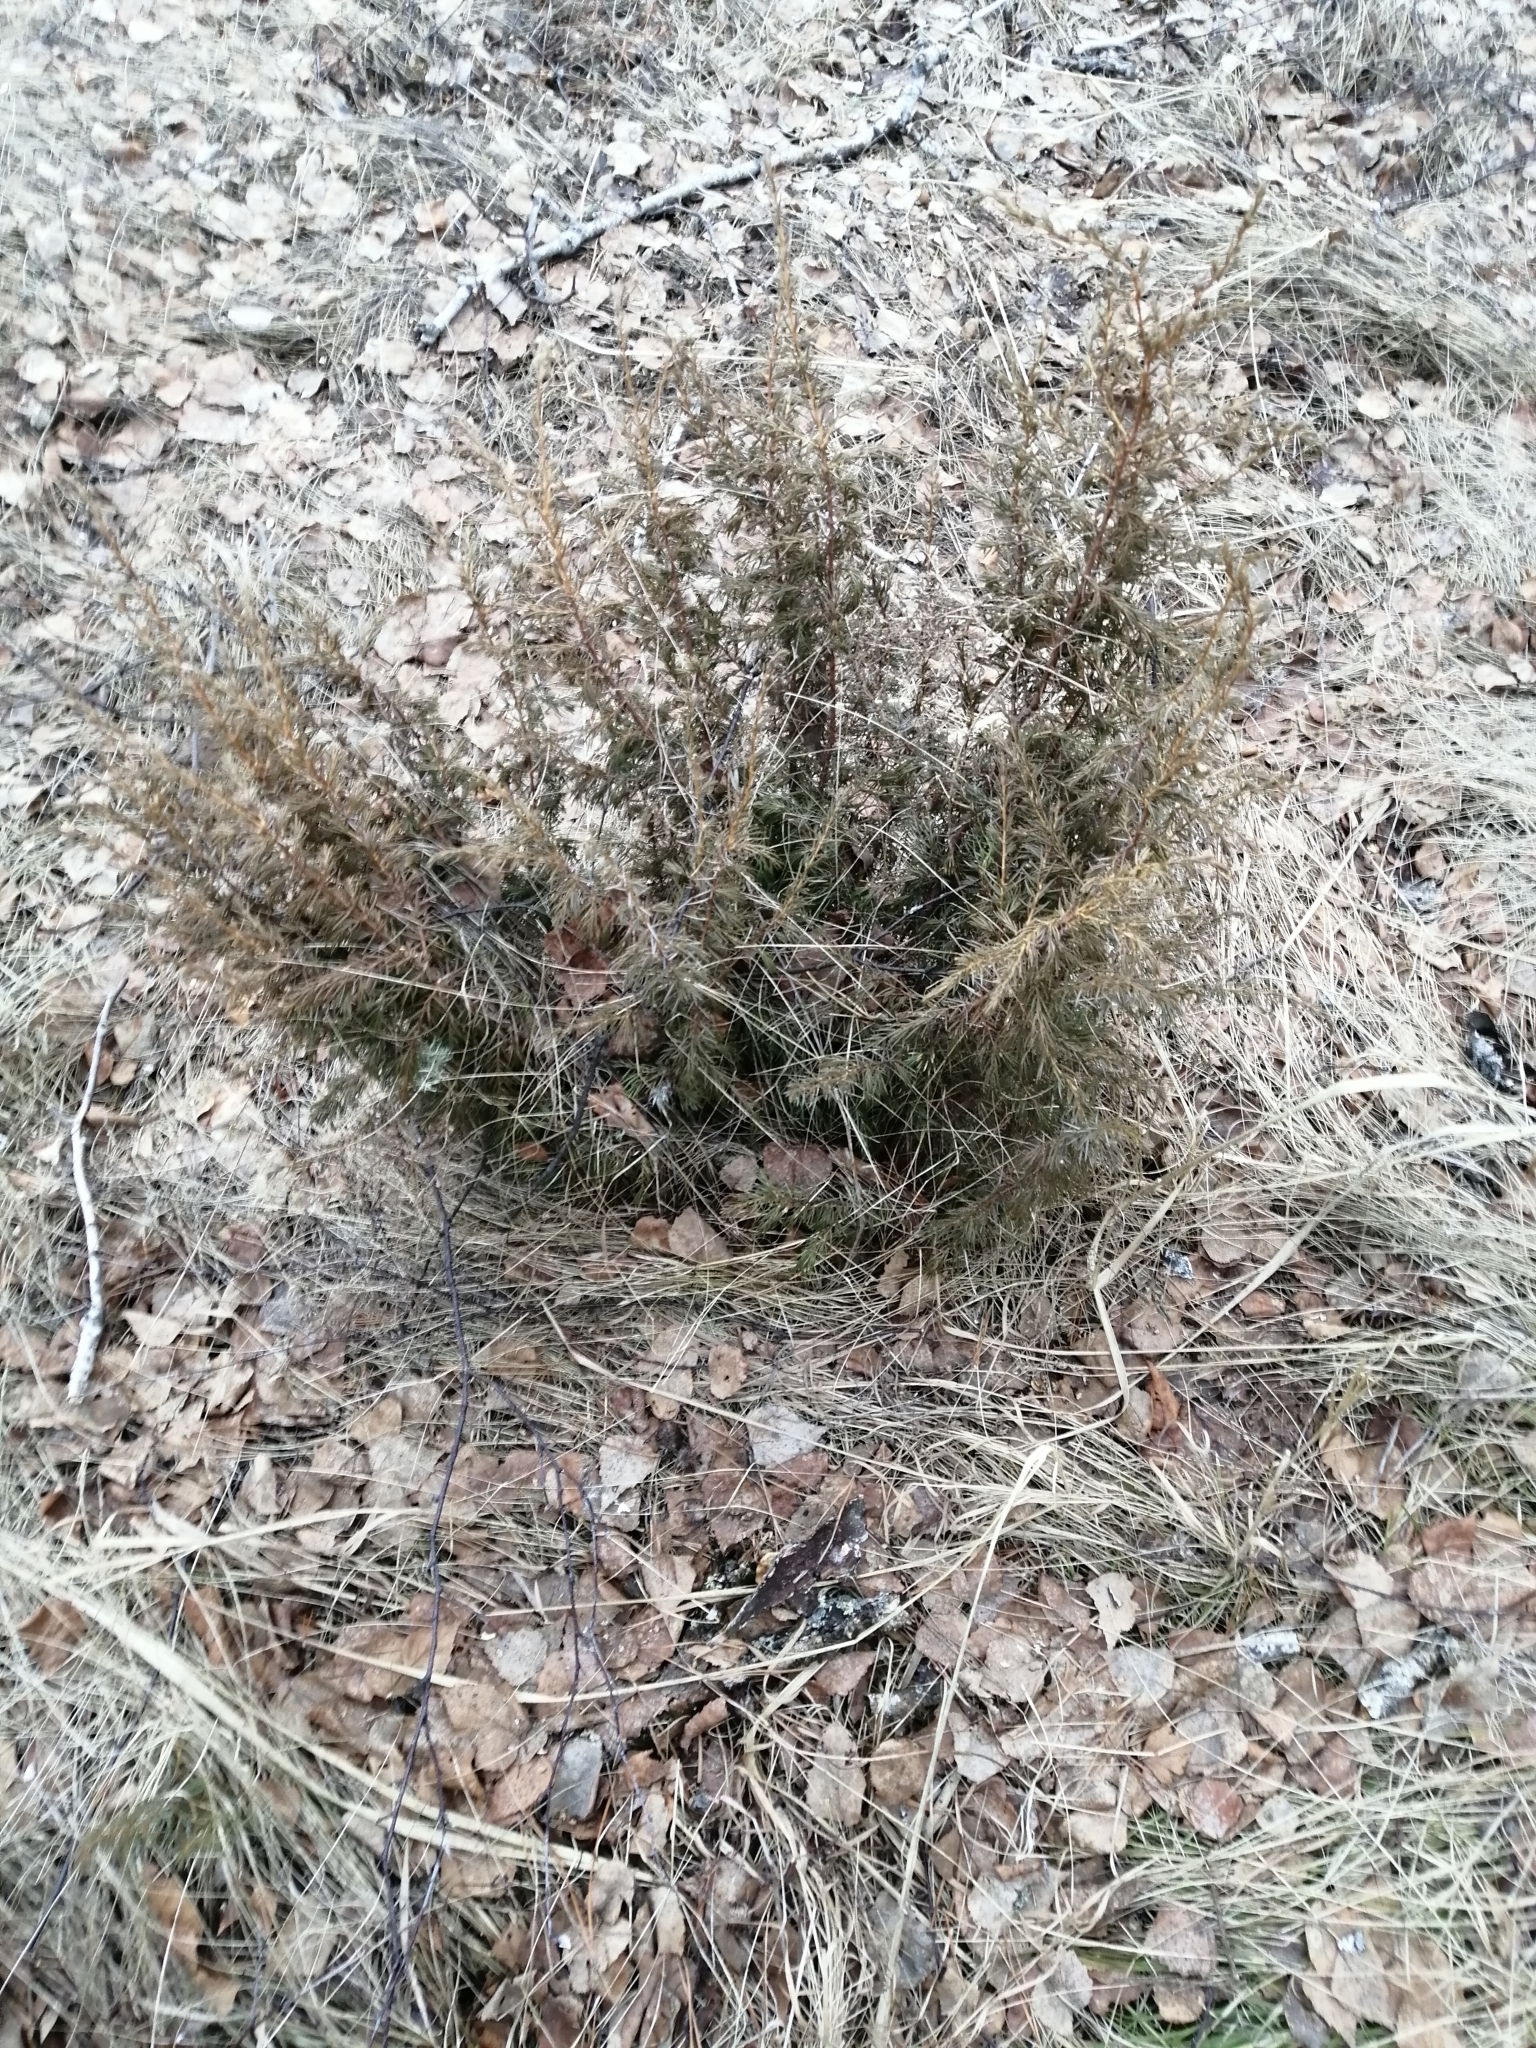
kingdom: Plantae
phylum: Tracheophyta
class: Pinopsida
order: Pinales
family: Cupressaceae
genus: Juniperus
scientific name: Juniperus communis
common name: Common juniper
